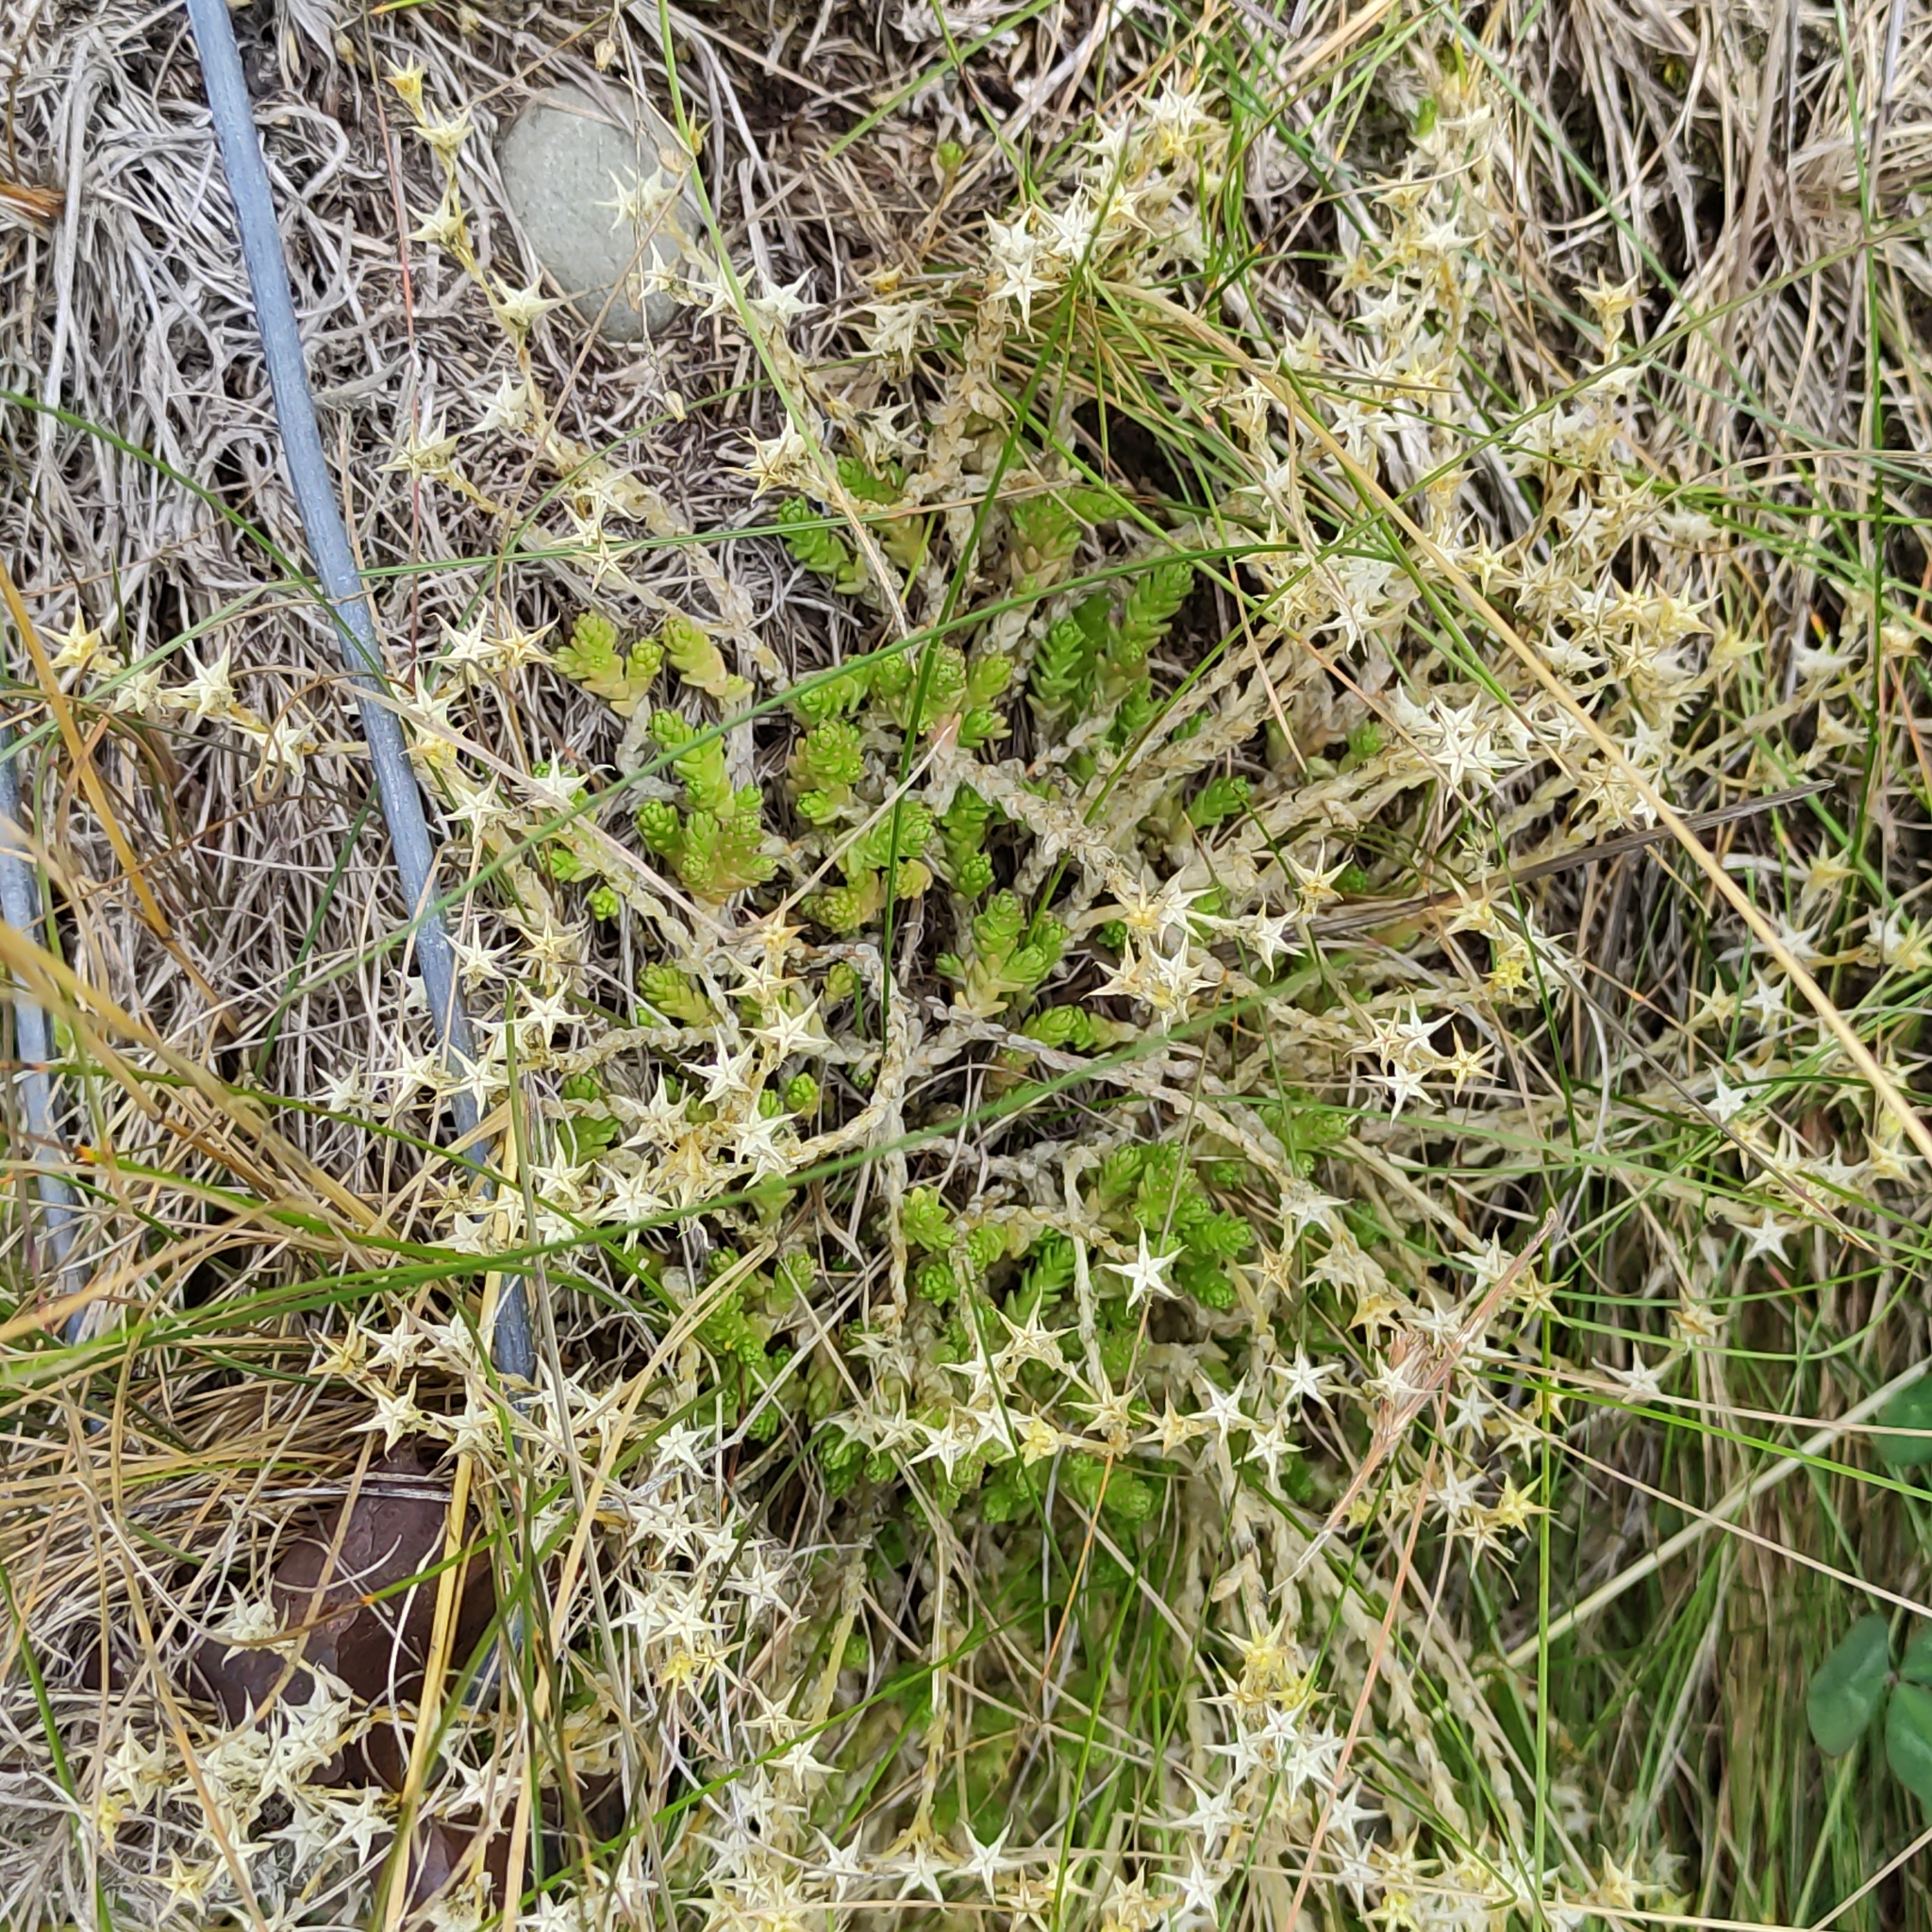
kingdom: Plantae
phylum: Tracheophyta
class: Magnoliopsida
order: Saxifragales
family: Crassulaceae
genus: Sedum
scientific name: Sedum acre
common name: Biting stonecrop
